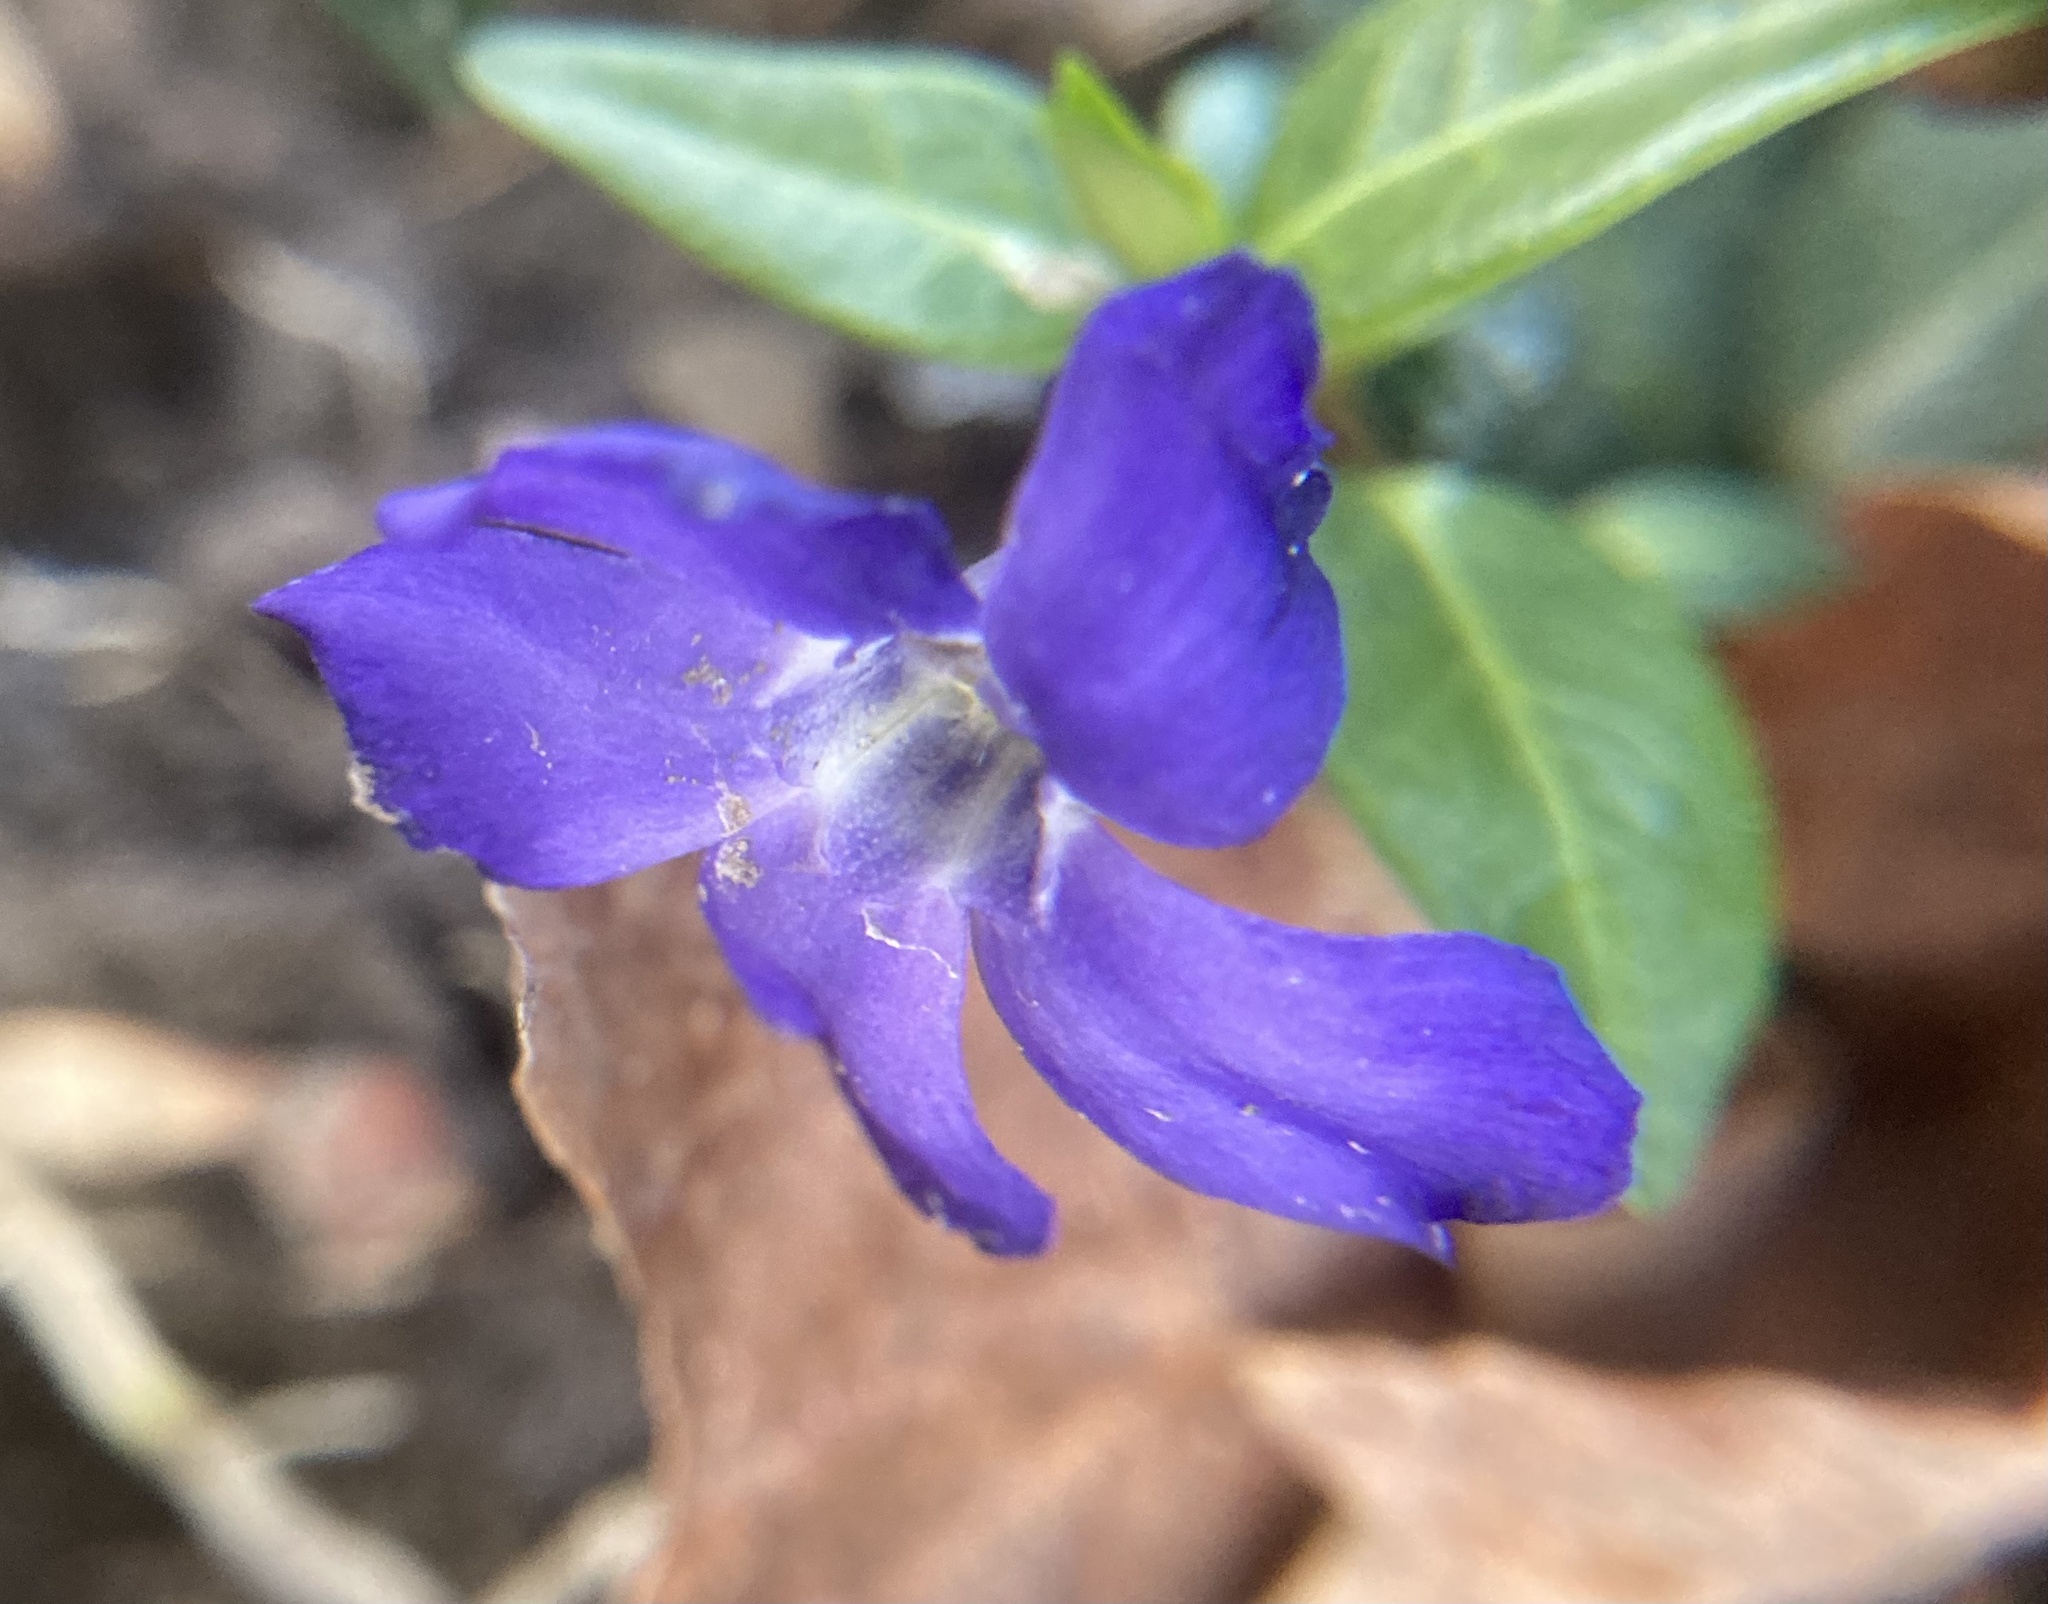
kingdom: Plantae
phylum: Tracheophyta
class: Magnoliopsida
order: Gentianales
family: Apocynaceae
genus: Vinca
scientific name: Vinca minor
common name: Lesser periwinkle
